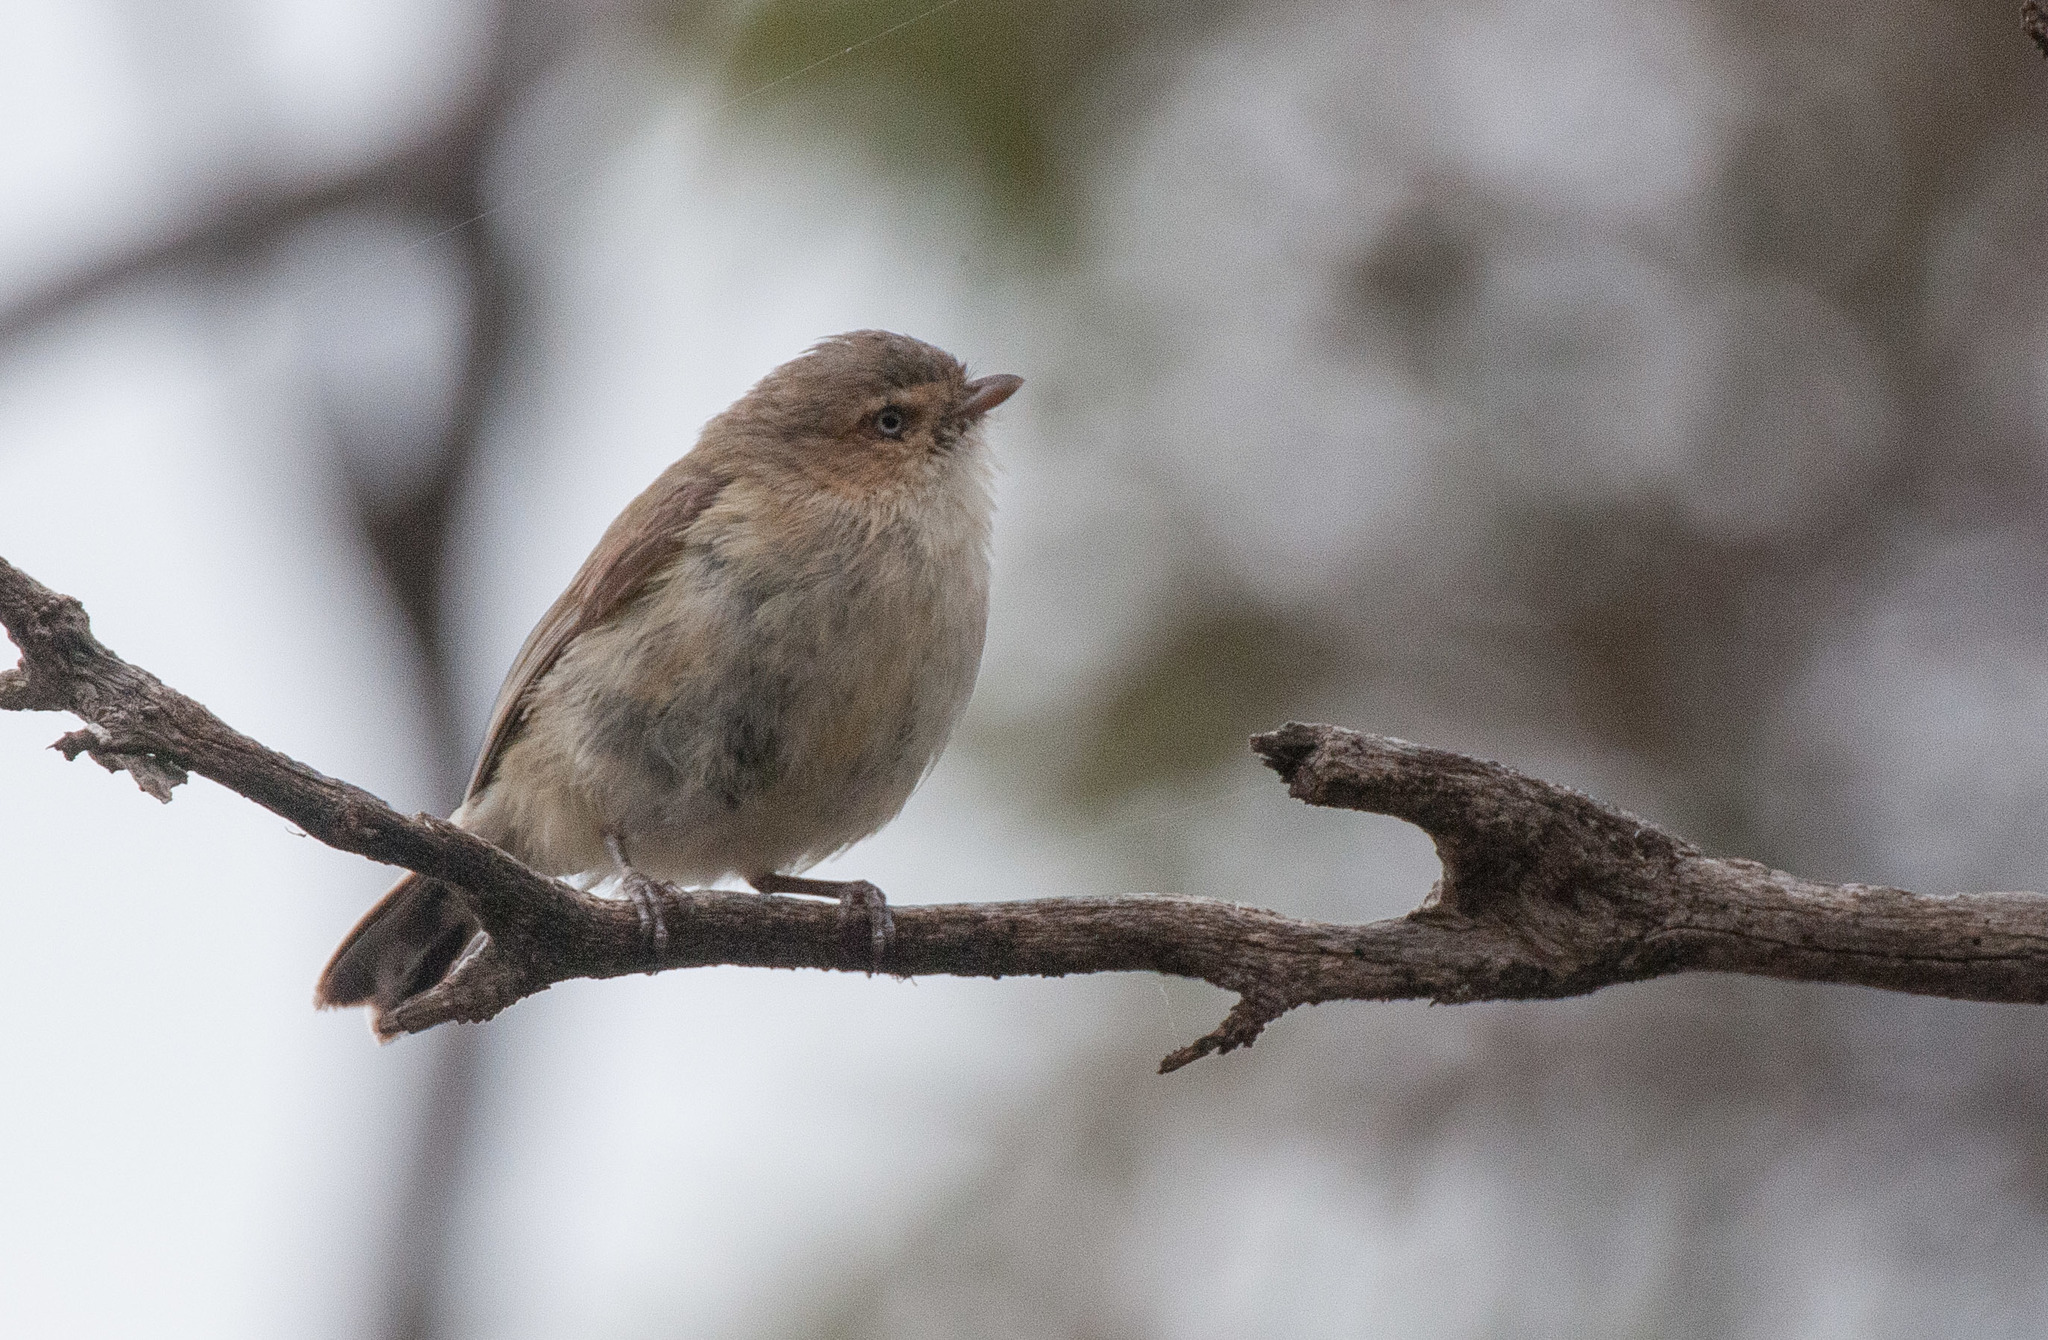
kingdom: Animalia
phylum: Chordata
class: Aves
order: Passeriformes
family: Acanthizidae
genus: Smicrornis
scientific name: Smicrornis brevirostris
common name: Weebill
